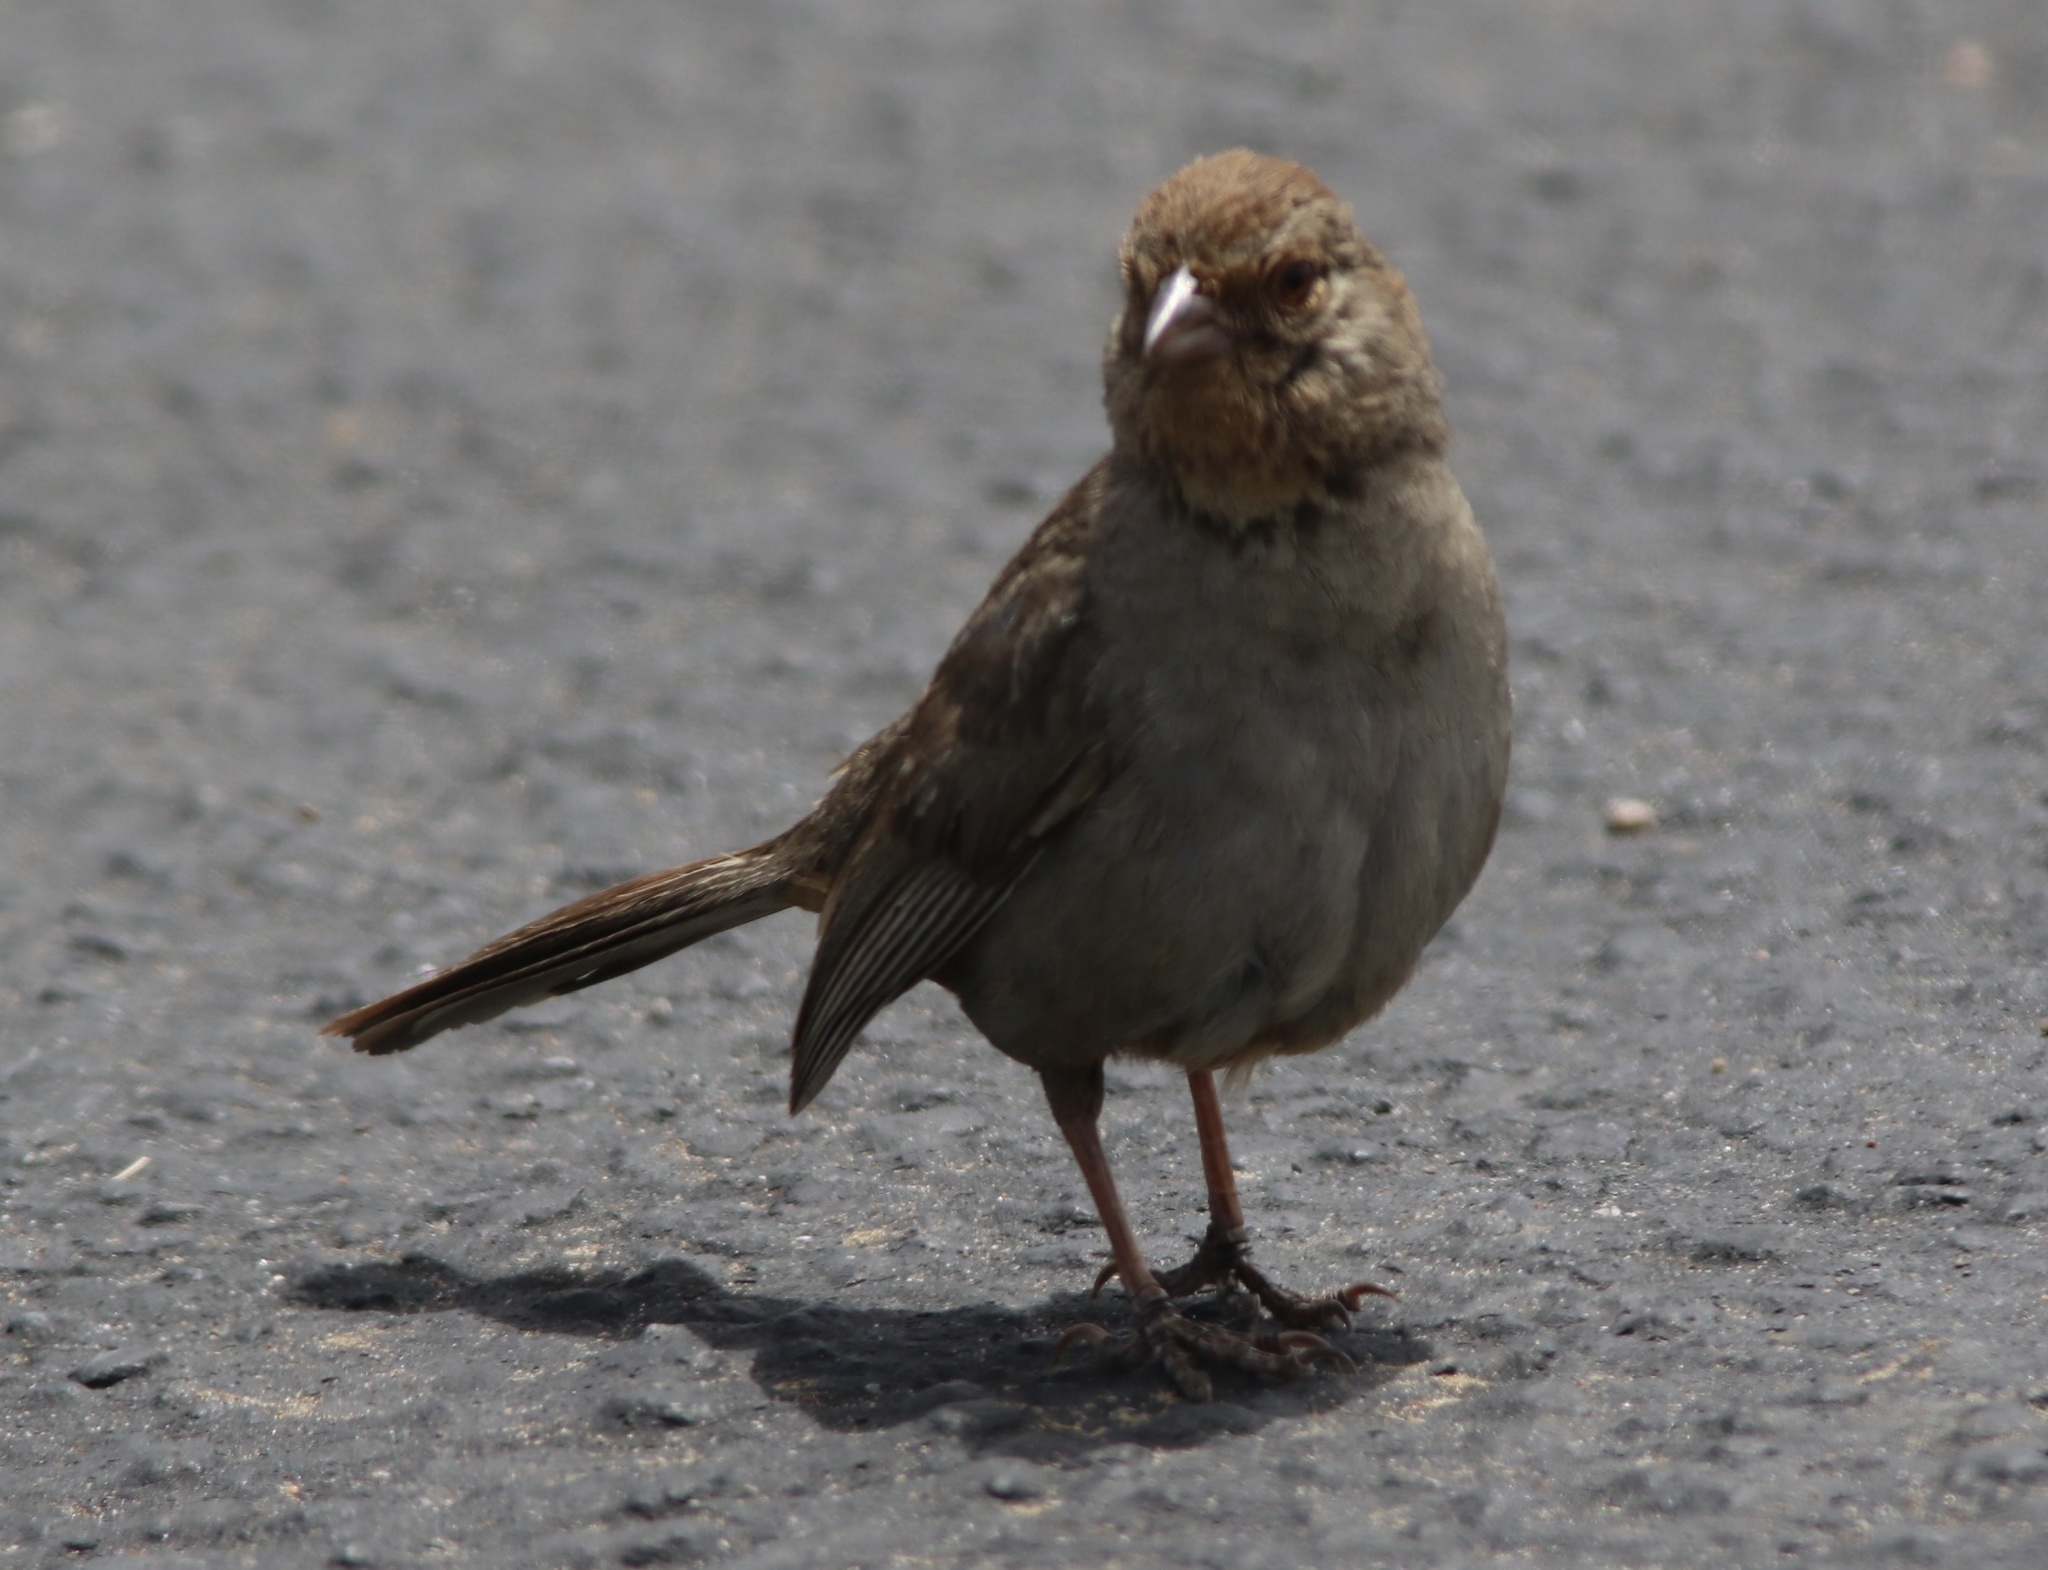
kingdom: Animalia
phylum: Chordata
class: Aves
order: Passeriformes
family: Passerellidae
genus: Melozone
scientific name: Melozone crissalis
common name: California towhee
